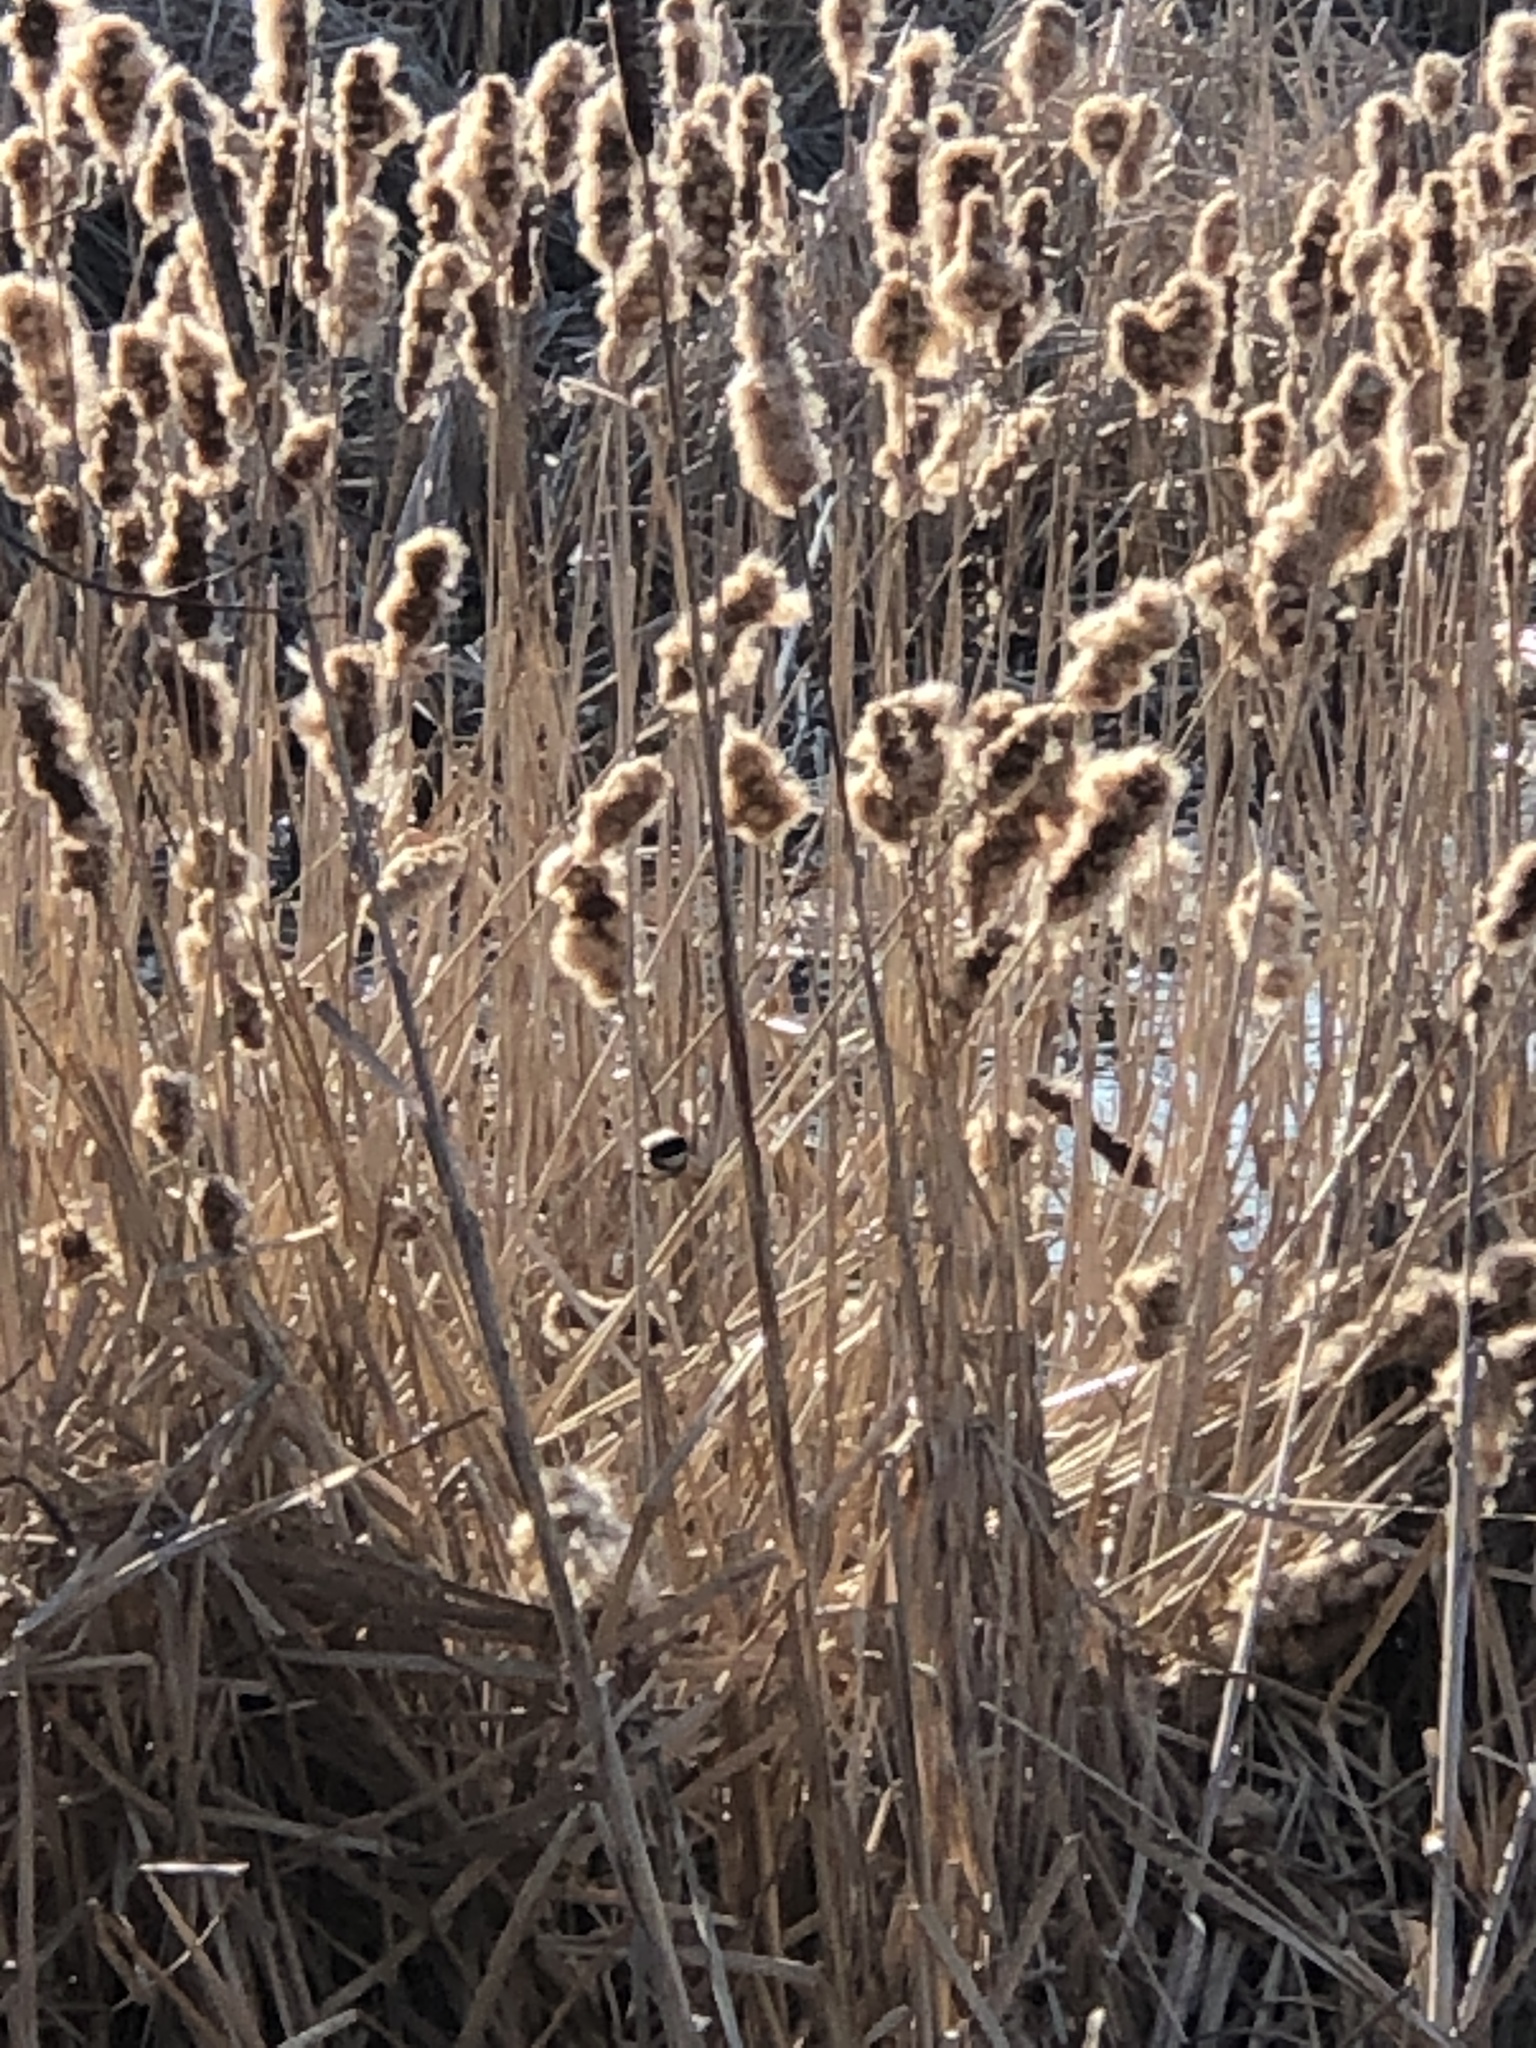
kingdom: Animalia
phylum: Chordata
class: Aves
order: Passeriformes
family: Paridae
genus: Poecile
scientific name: Poecile atricapillus
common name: Black-capped chickadee
